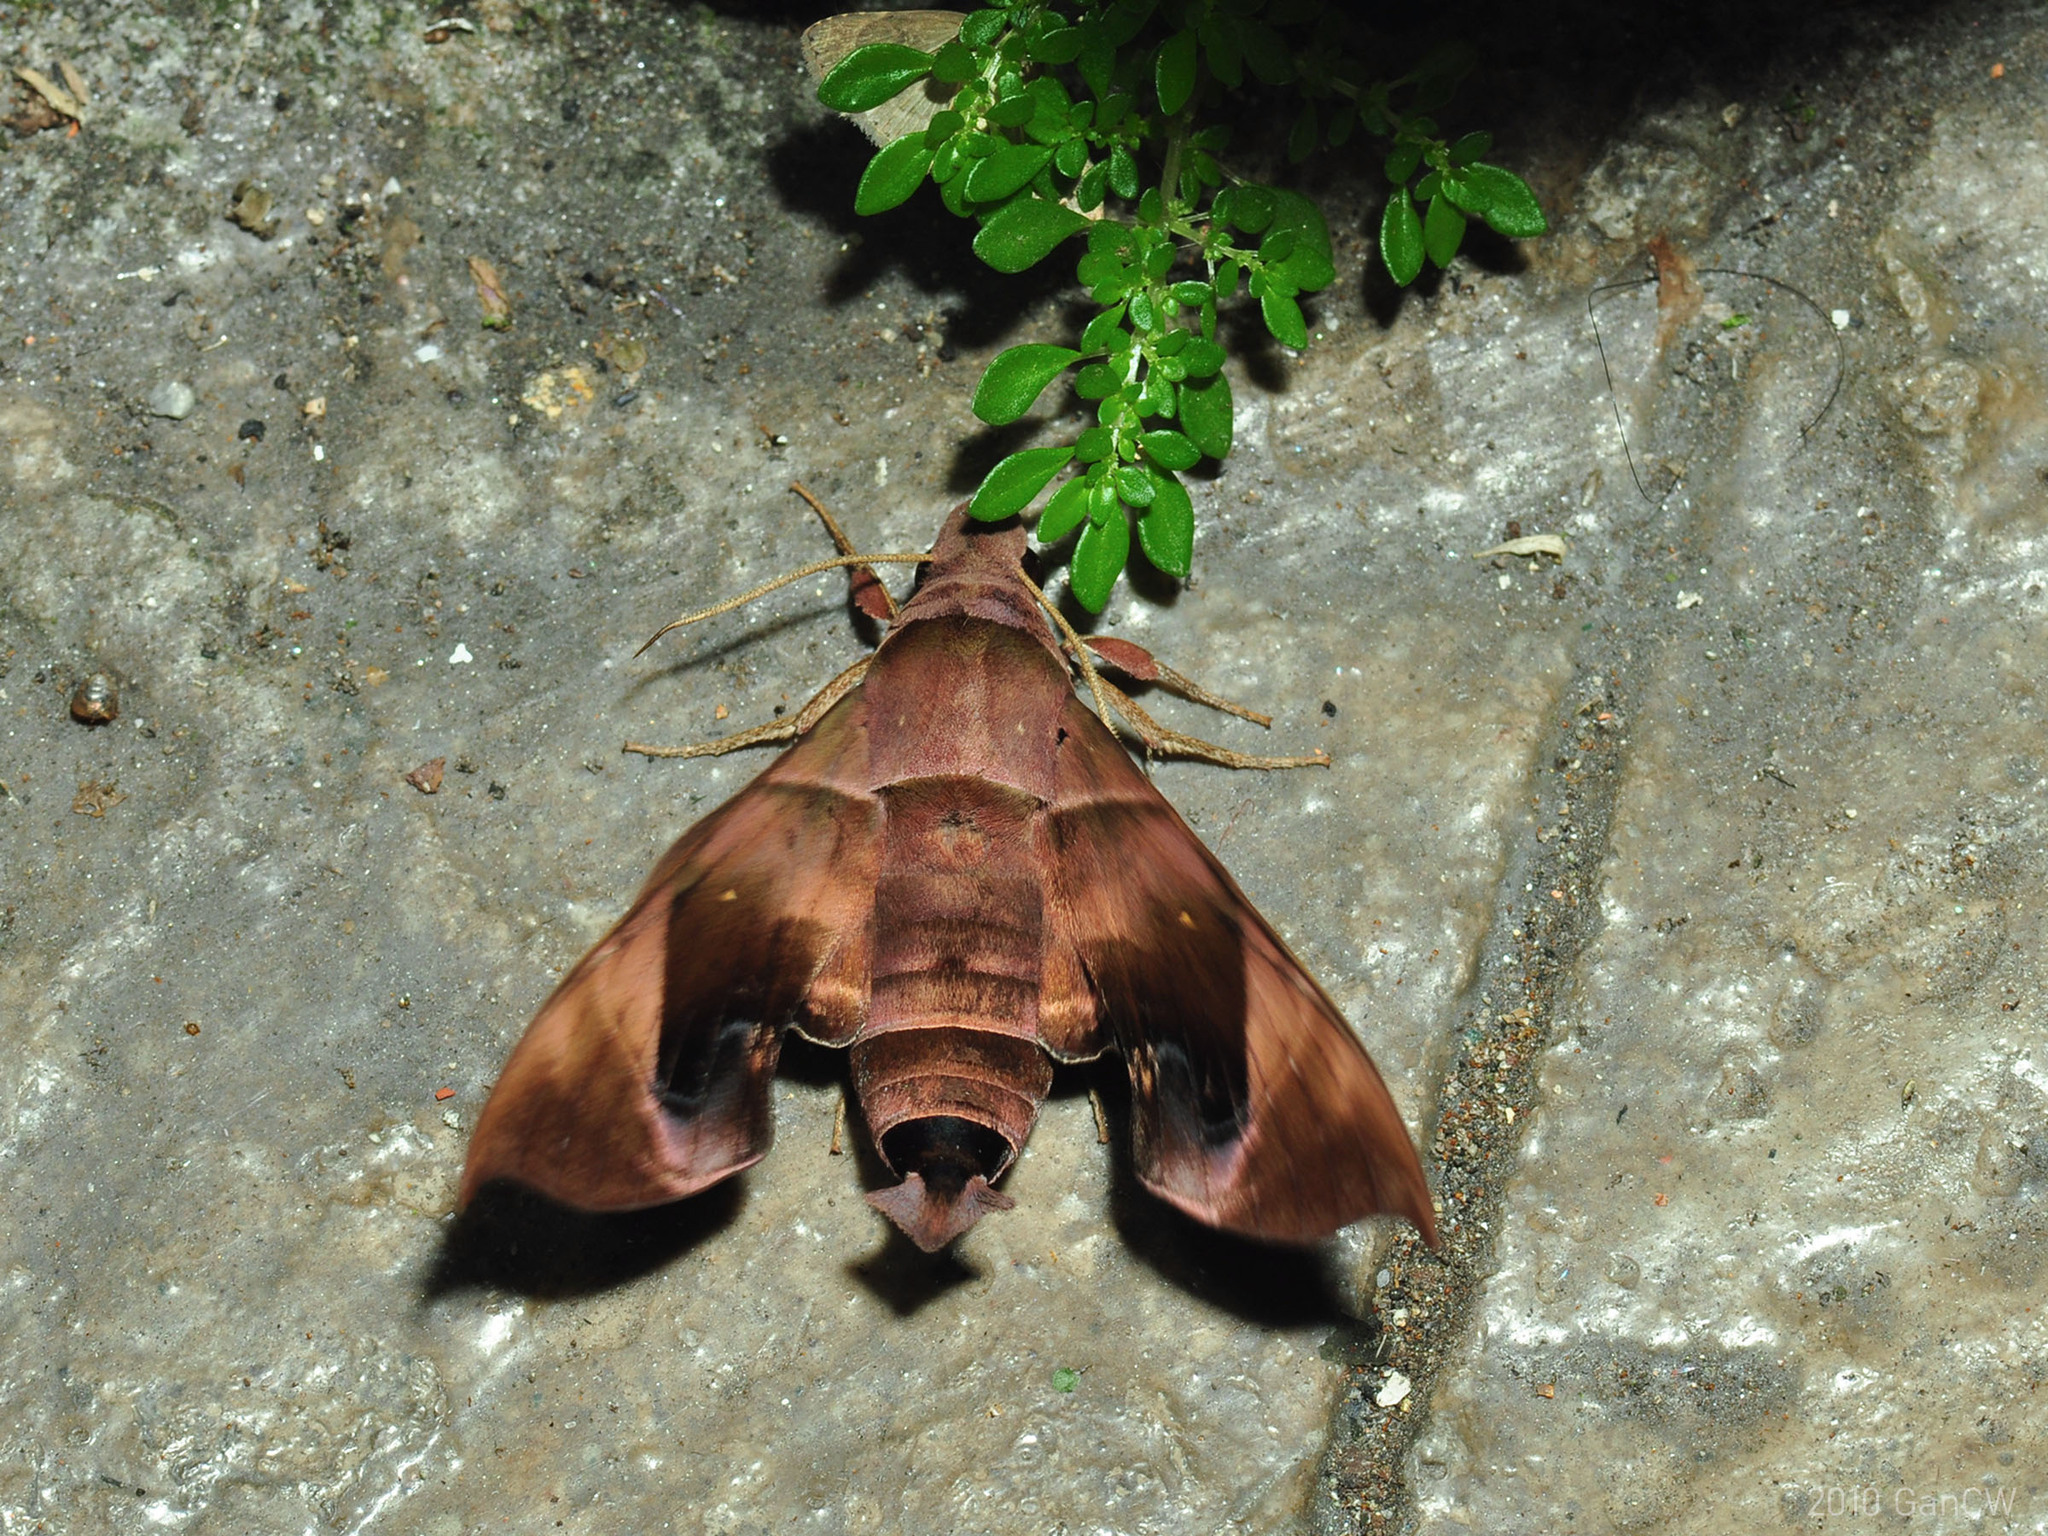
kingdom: Animalia
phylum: Arthropoda
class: Insecta
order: Lepidoptera
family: Sphingidae
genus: Eurypteryx
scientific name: Eurypteryx bhaga
